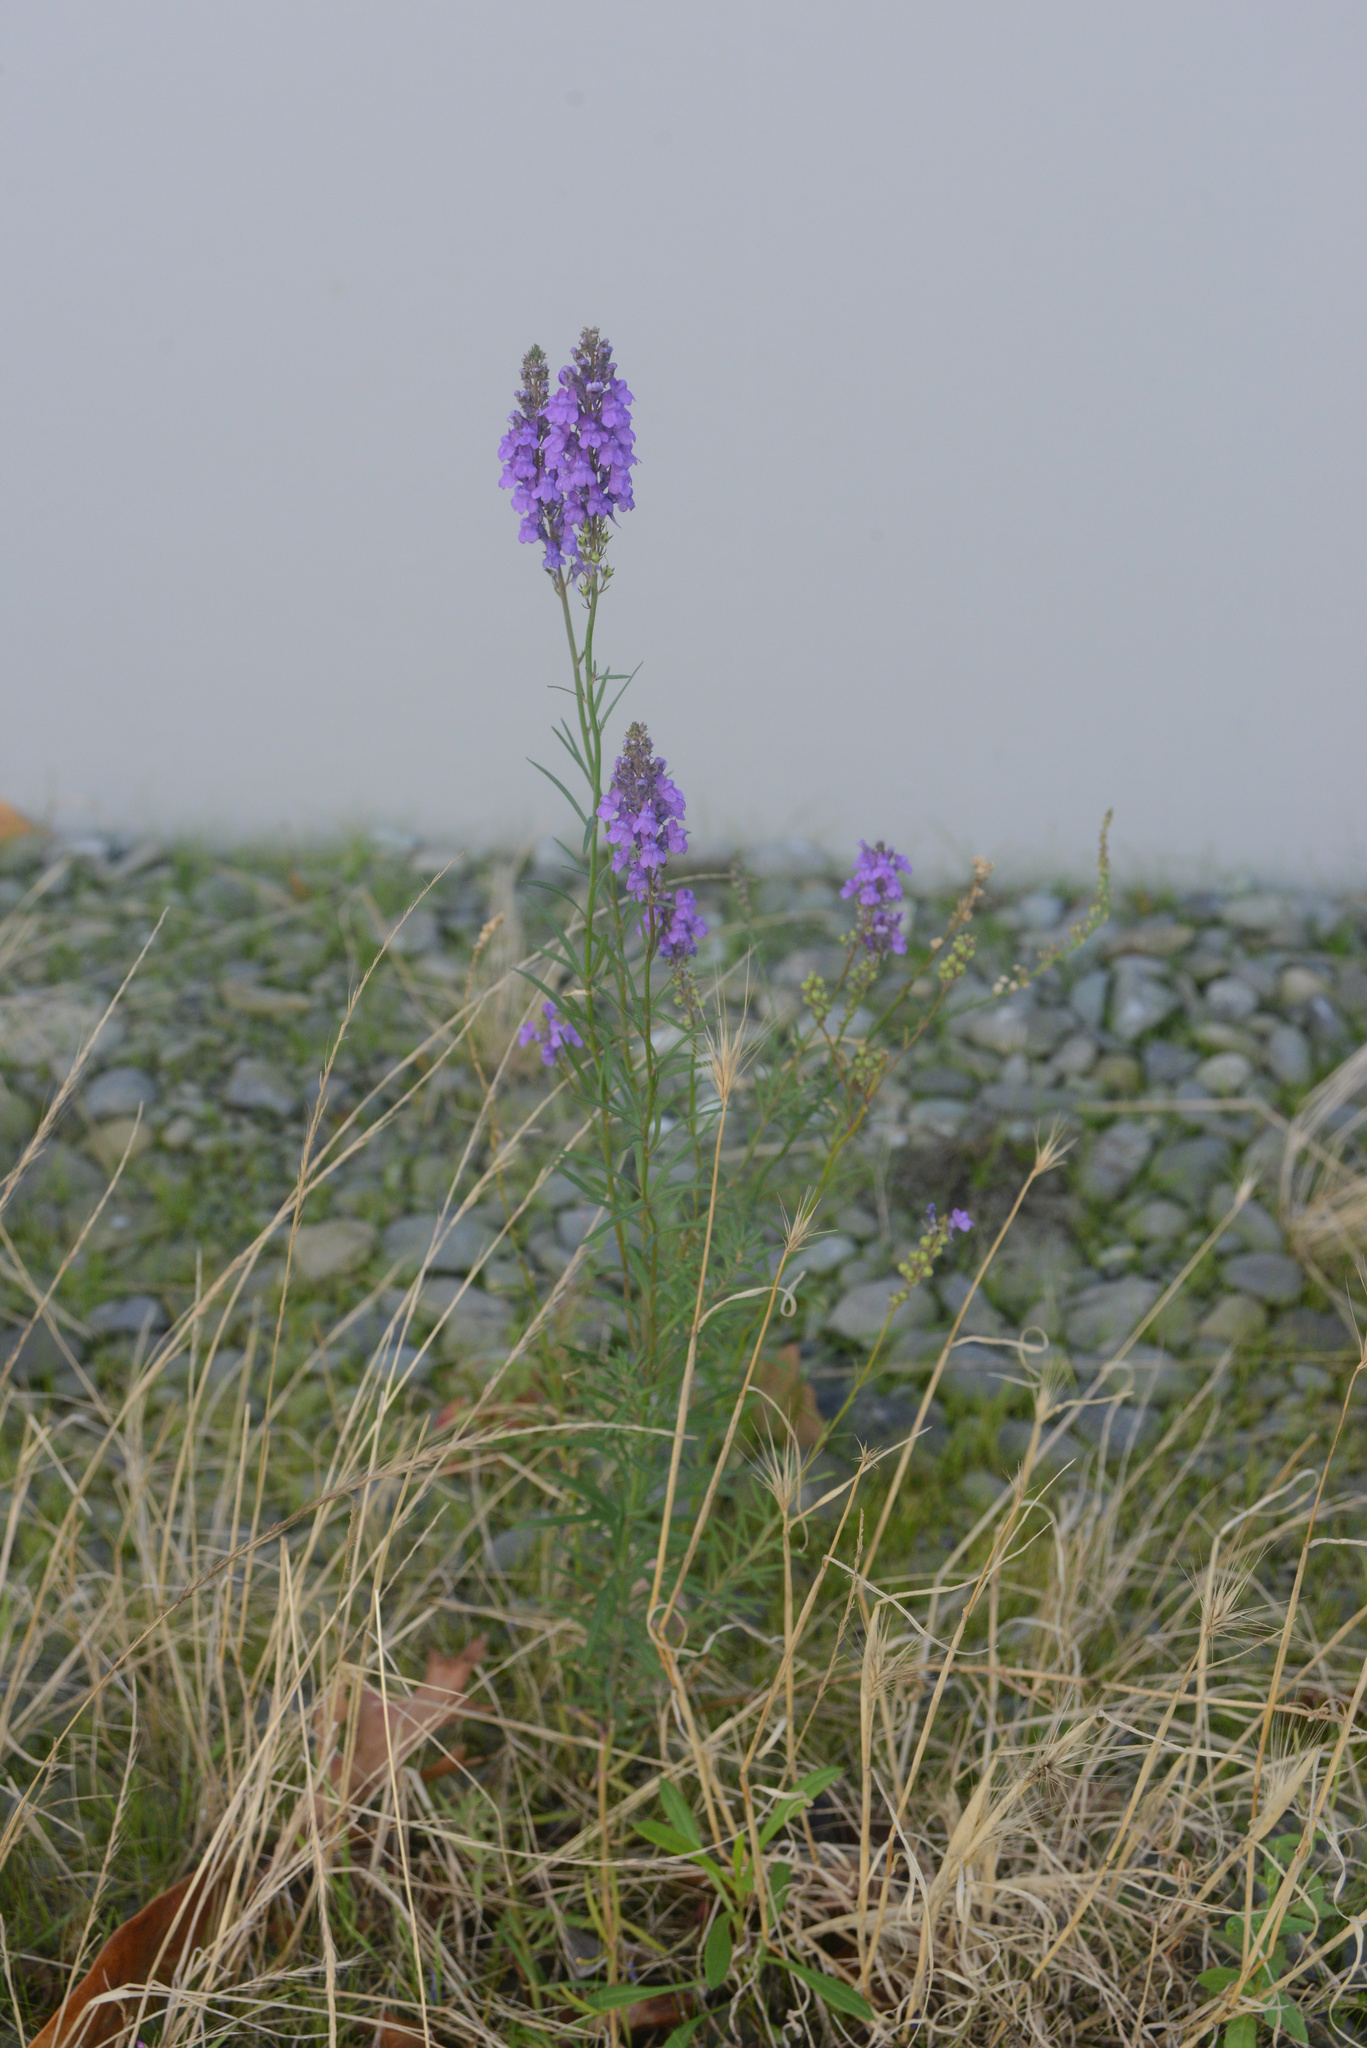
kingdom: Plantae
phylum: Tracheophyta
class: Magnoliopsida
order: Lamiales
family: Plantaginaceae
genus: Linaria
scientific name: Linaria purpurea
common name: Purple toadflax
